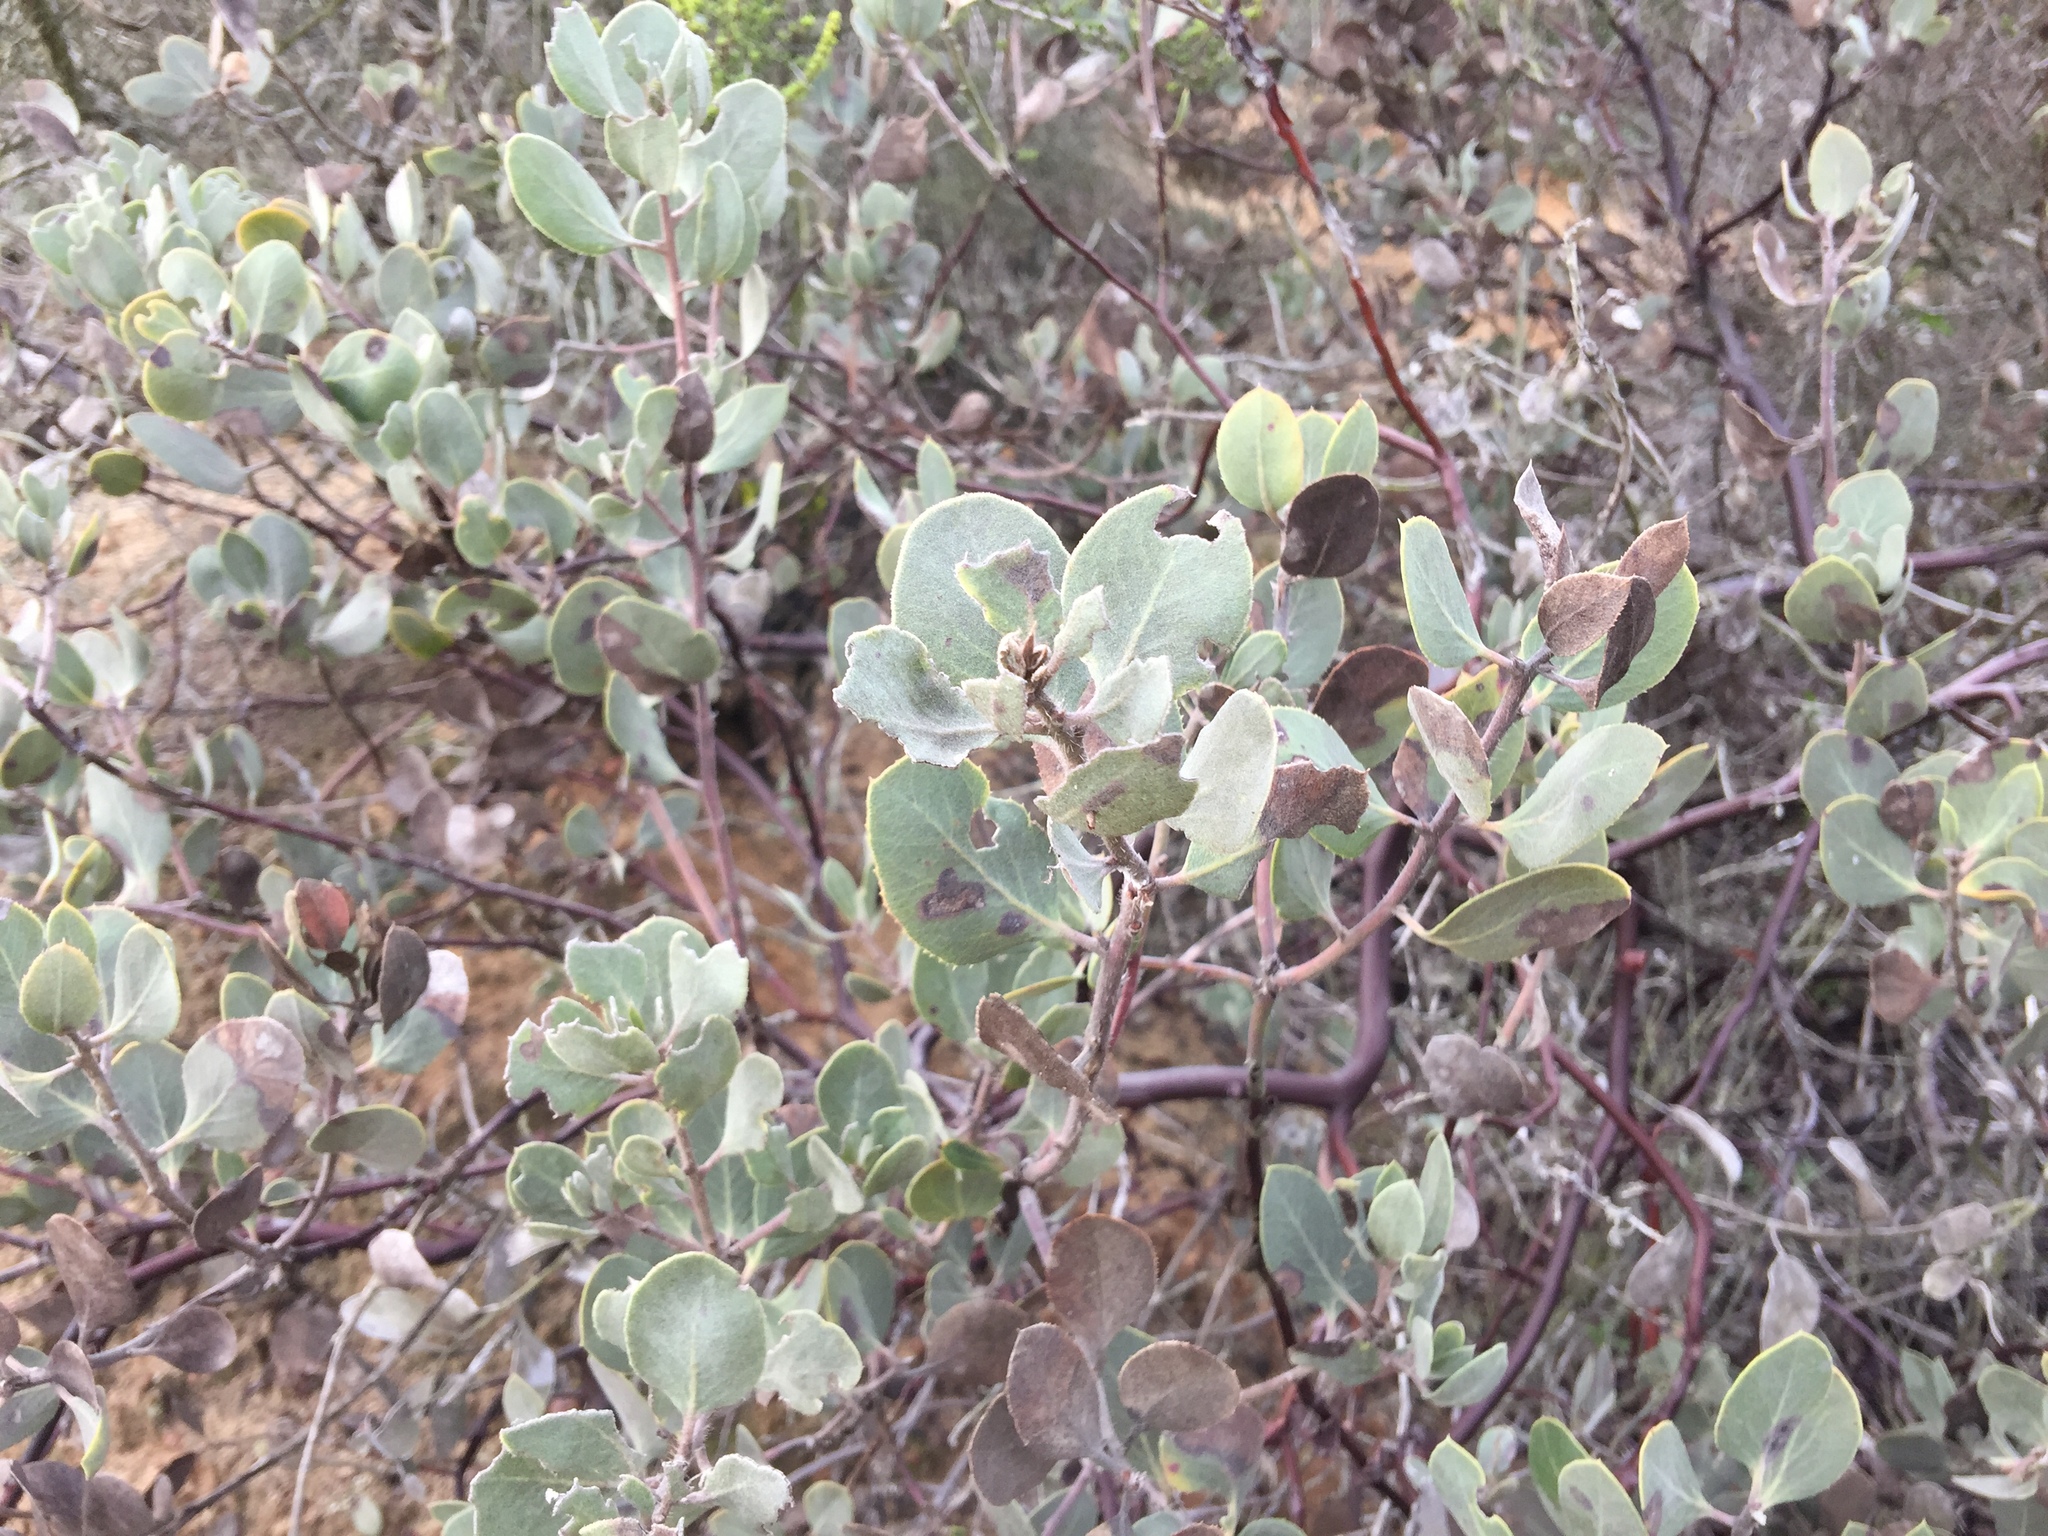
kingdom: Plantae
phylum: Tracheophyta
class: Magnoliopsida
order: Ericales
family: Ericaceae
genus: Arctostaphylos
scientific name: Arctostaphylos glandulosa
